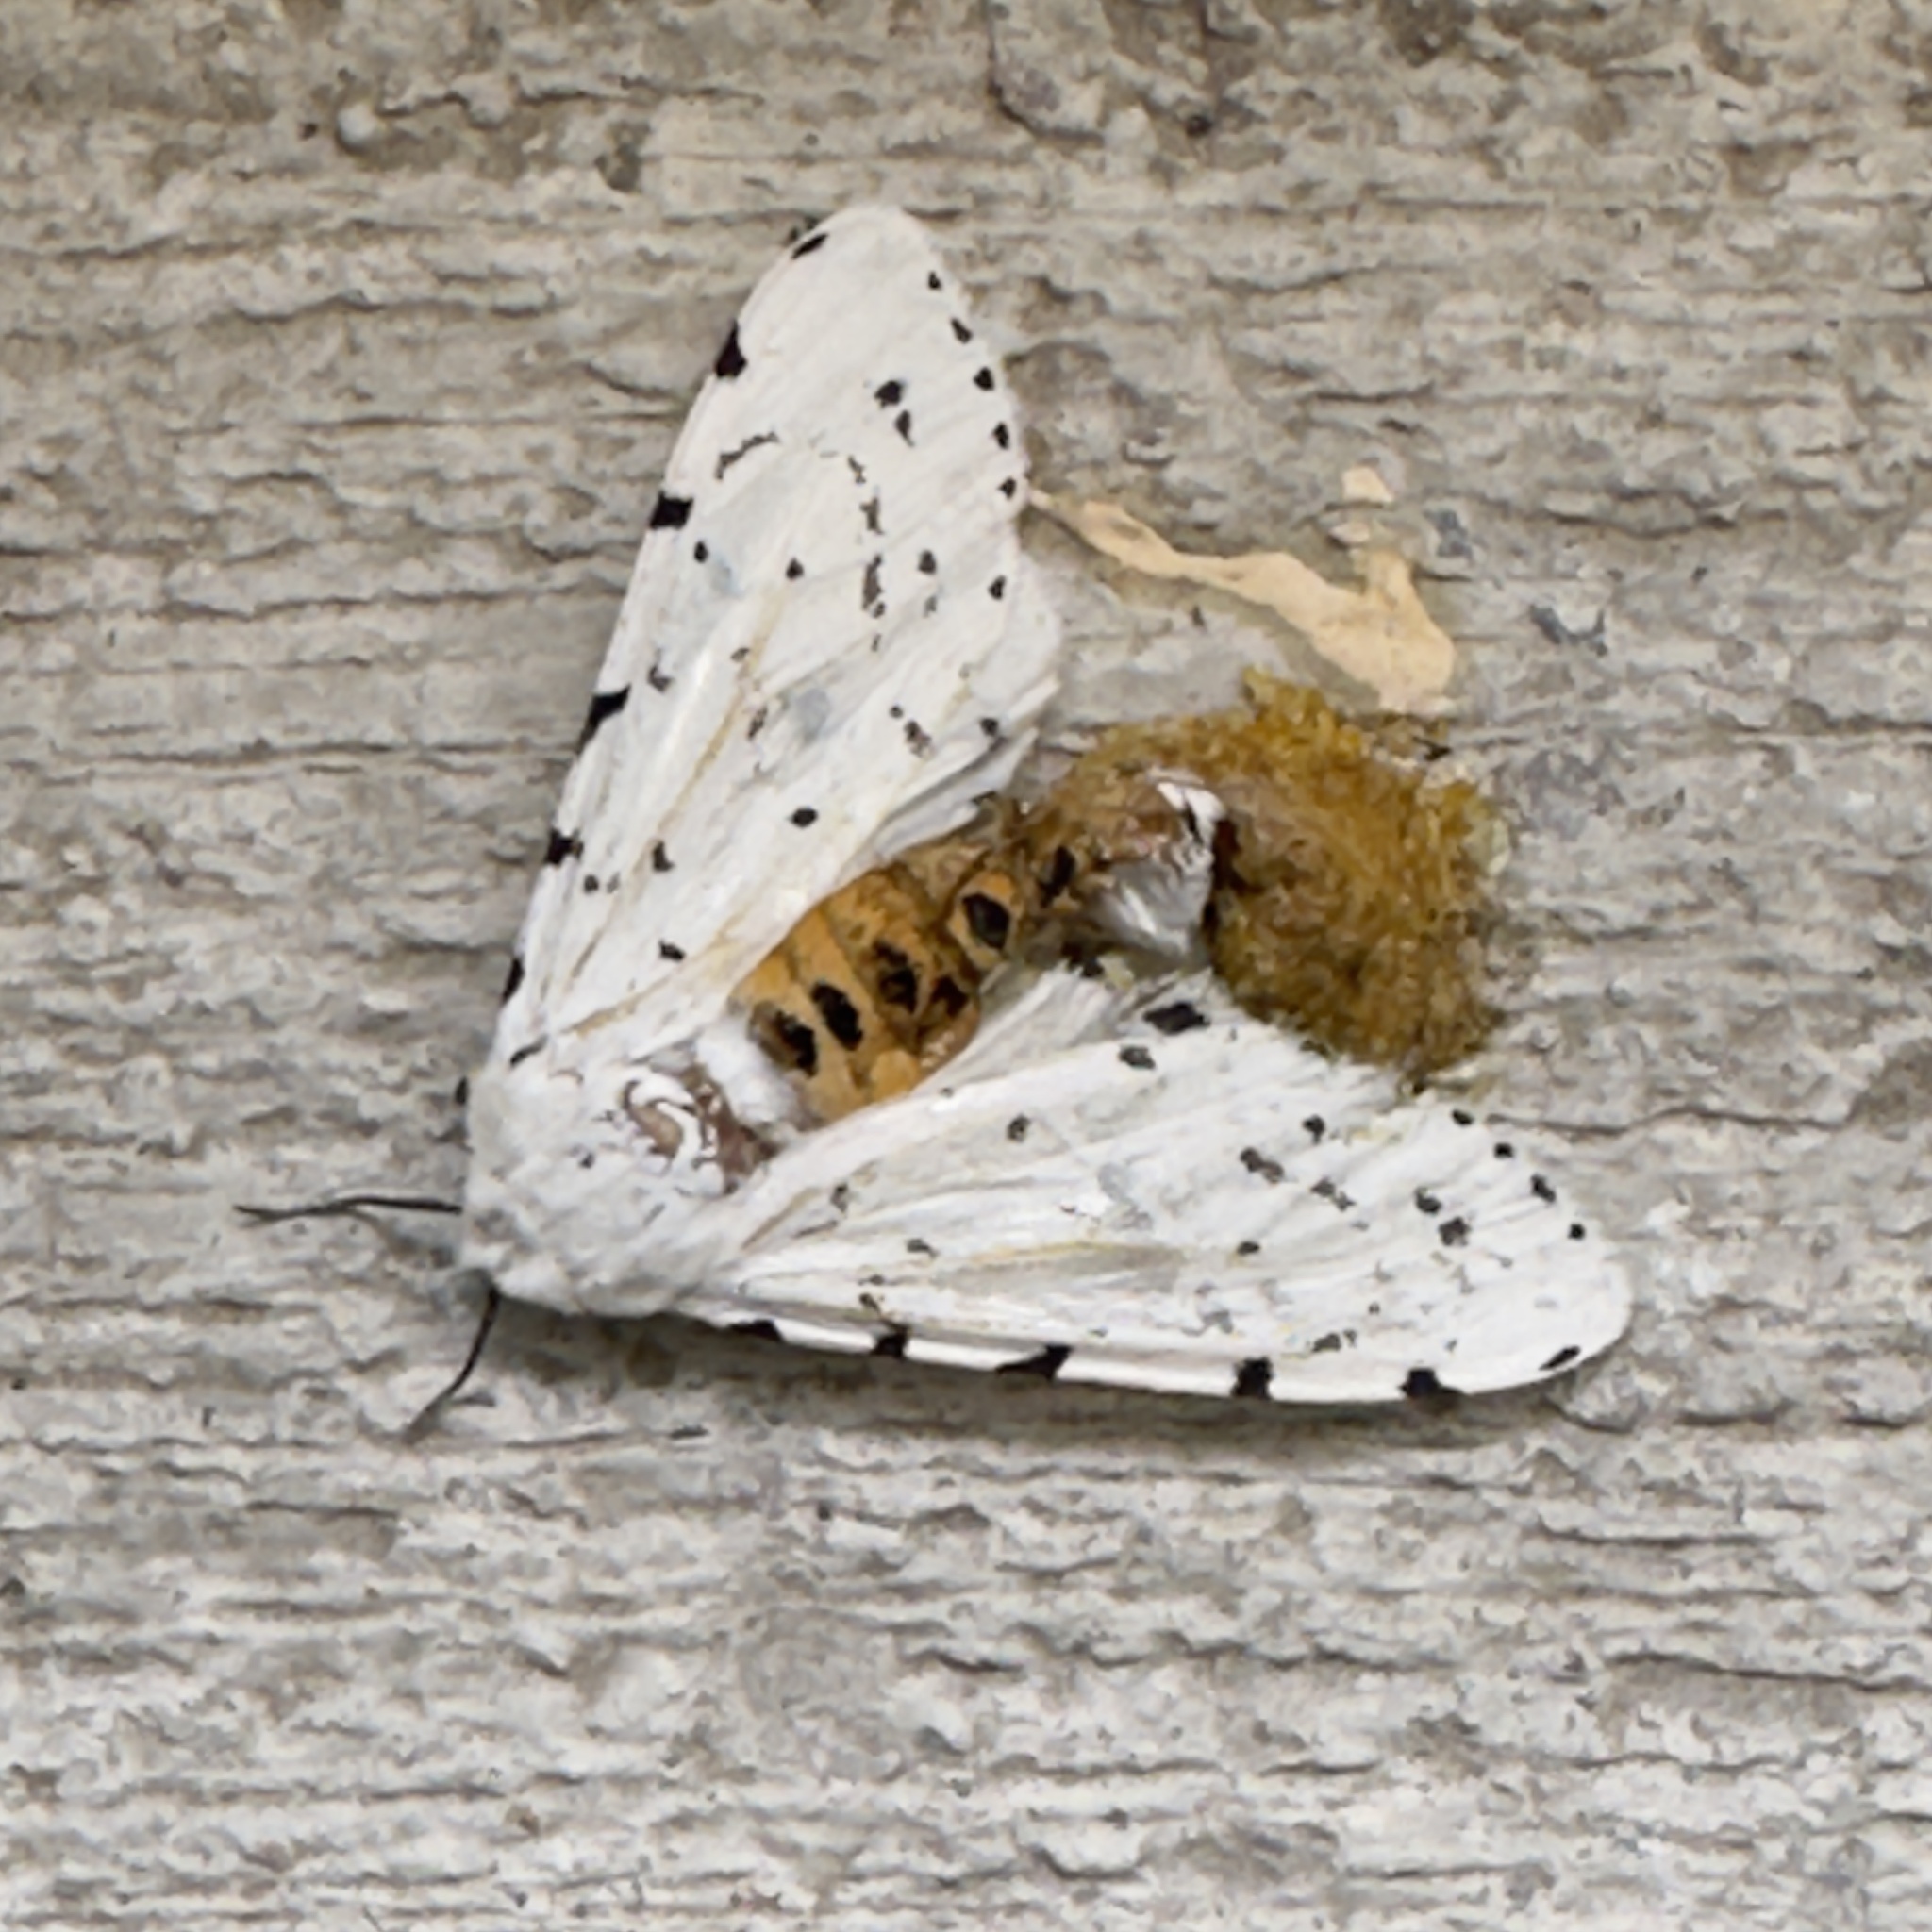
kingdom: Animalia
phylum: Arthropoda
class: Insecta
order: Lepidoptera
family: Erebidae
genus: Estigmene
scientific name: Estigmene acrea
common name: Salt marsh moth
